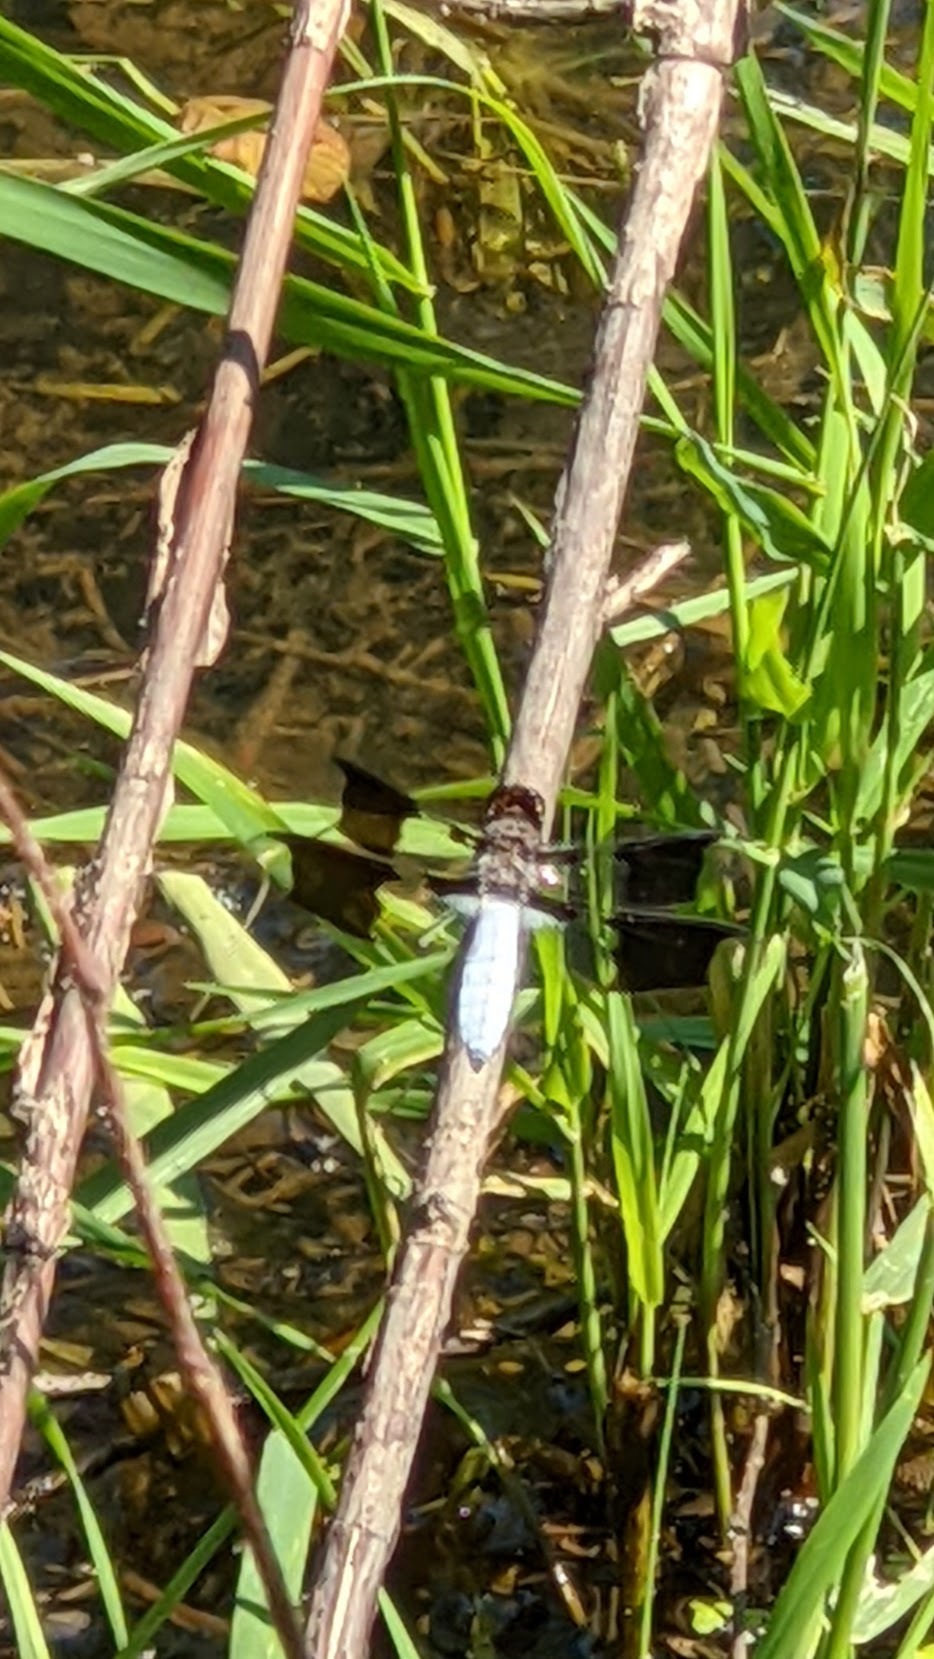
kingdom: Animalia
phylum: Arthropoda
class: Insecta
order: Odonata
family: Libellulidae
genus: Plathemis
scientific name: Plathemis lydia
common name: Common whitetail
